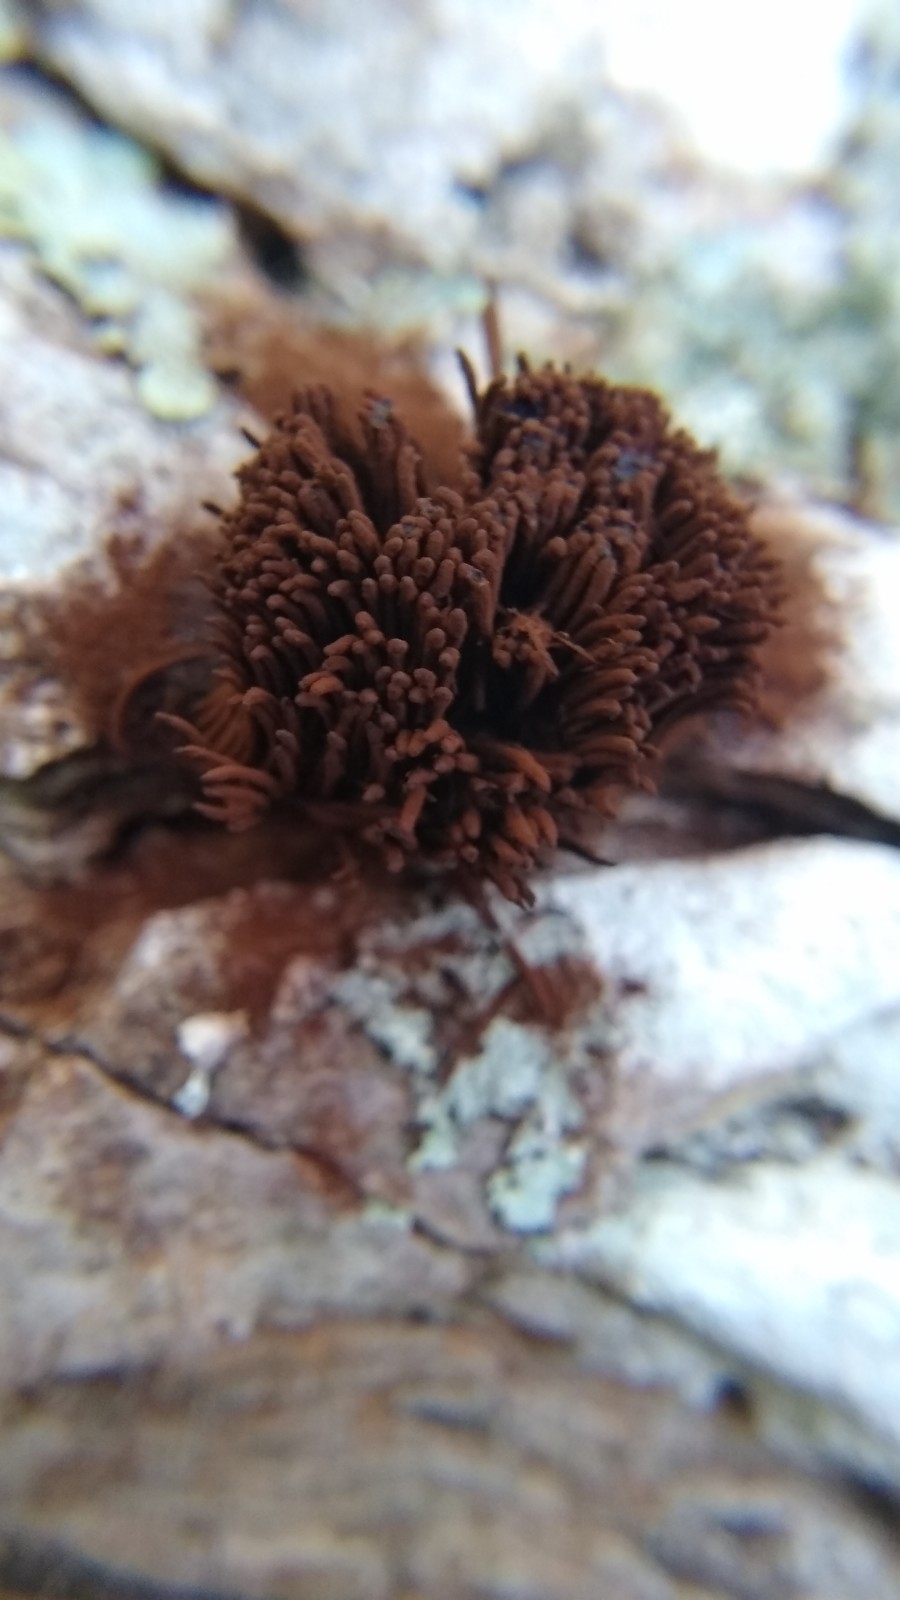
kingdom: Protozoa
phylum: Mycetozoa
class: Myxomycetes
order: Stemonitidales
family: Stemonitidaceae
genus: Stemonitis
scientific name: Stemonitis splendens
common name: Chocolate tube slime
